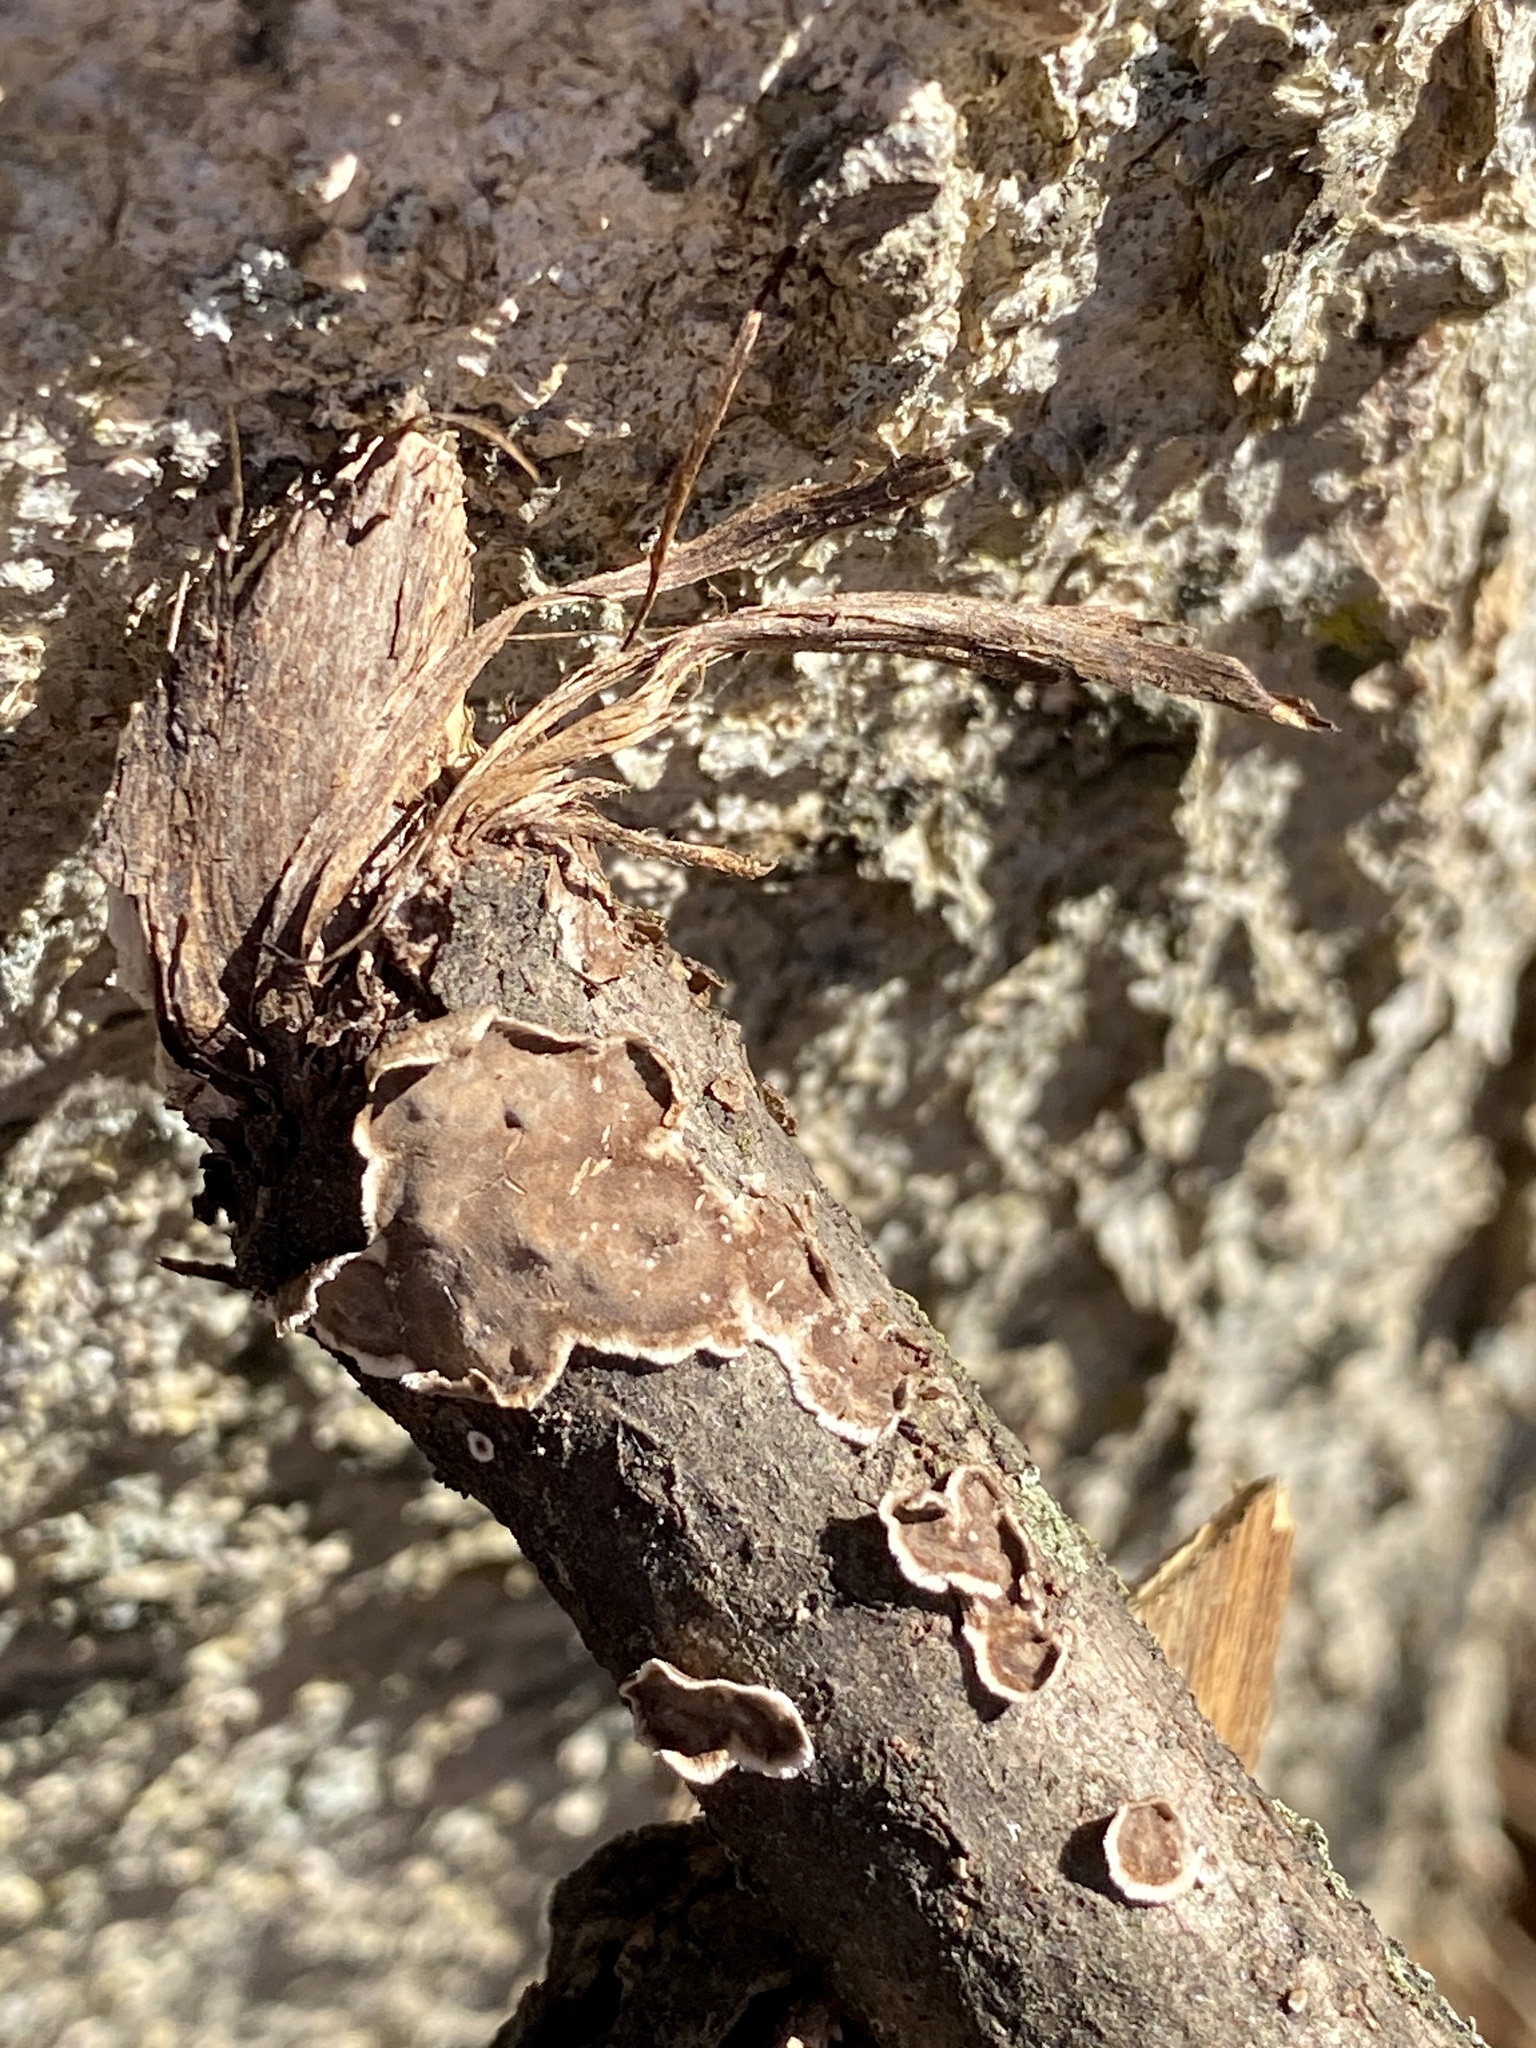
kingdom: Fungi
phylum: Basidiomycota
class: Agaricomycetes
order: Russulales
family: Peniophoraceae
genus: Peniophora
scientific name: Peniophora albobadia
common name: Giraffe spots
